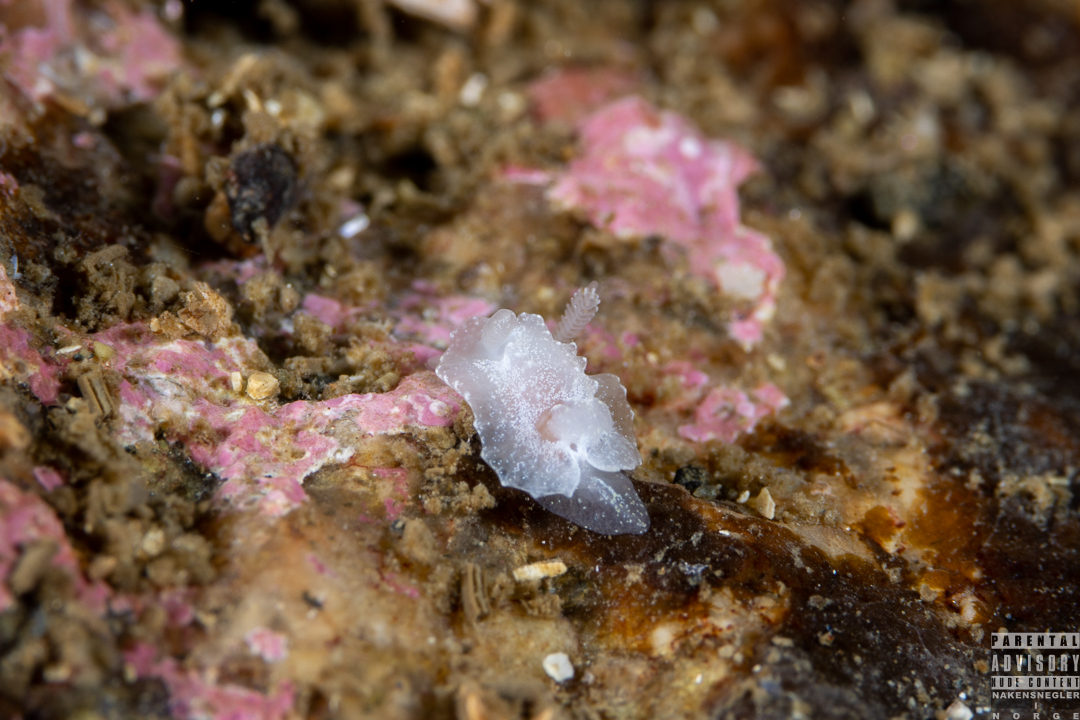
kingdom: Animalia
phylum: Mollusca
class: Gastropoda
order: Nudibranchia
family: Goniodorididae
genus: Okenia
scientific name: Okenia
